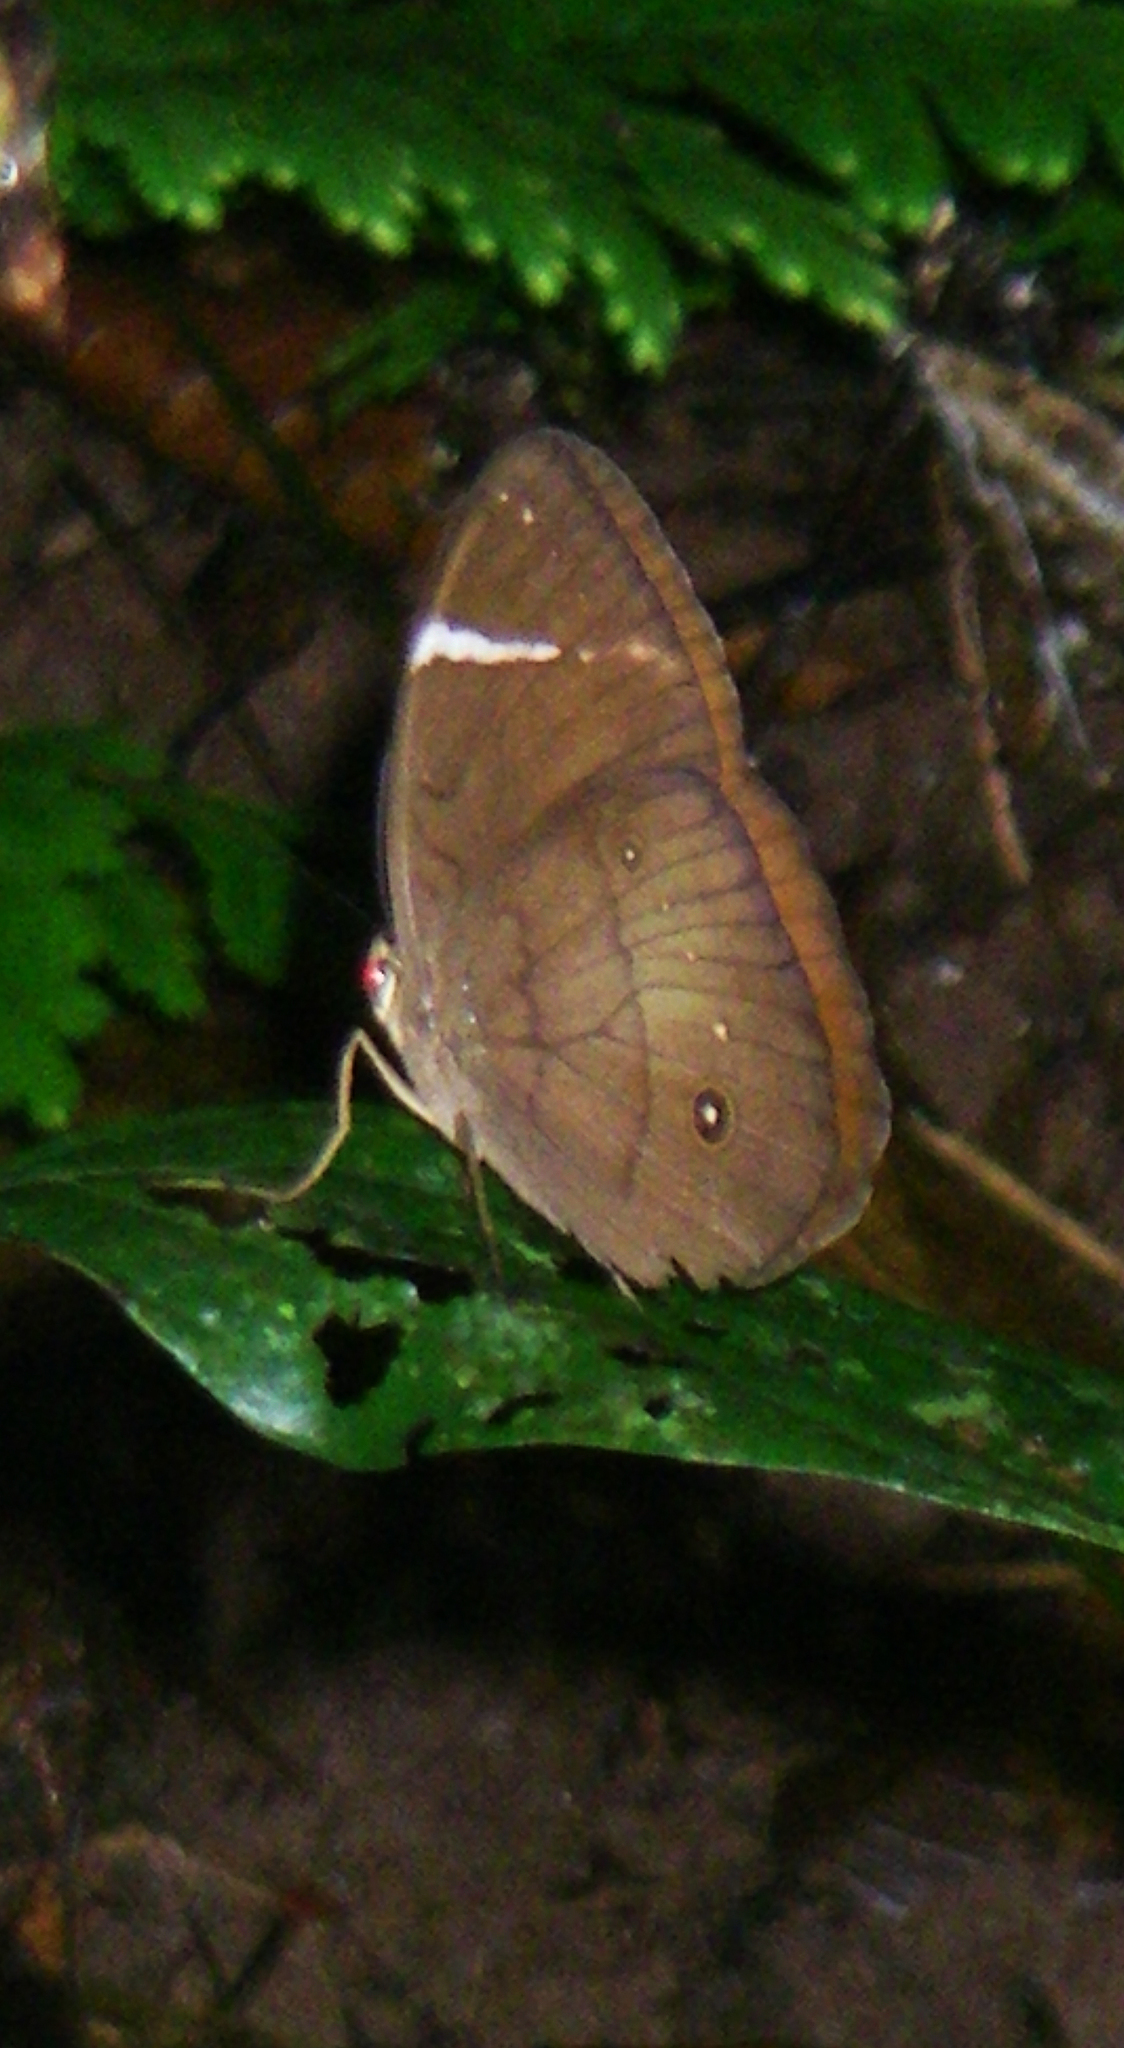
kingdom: Animalia
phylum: Arthropoda
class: Insecta
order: Lepidoptera
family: Nymphalidae
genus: Faunis
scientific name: Faunis stomphax
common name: Banded faun
